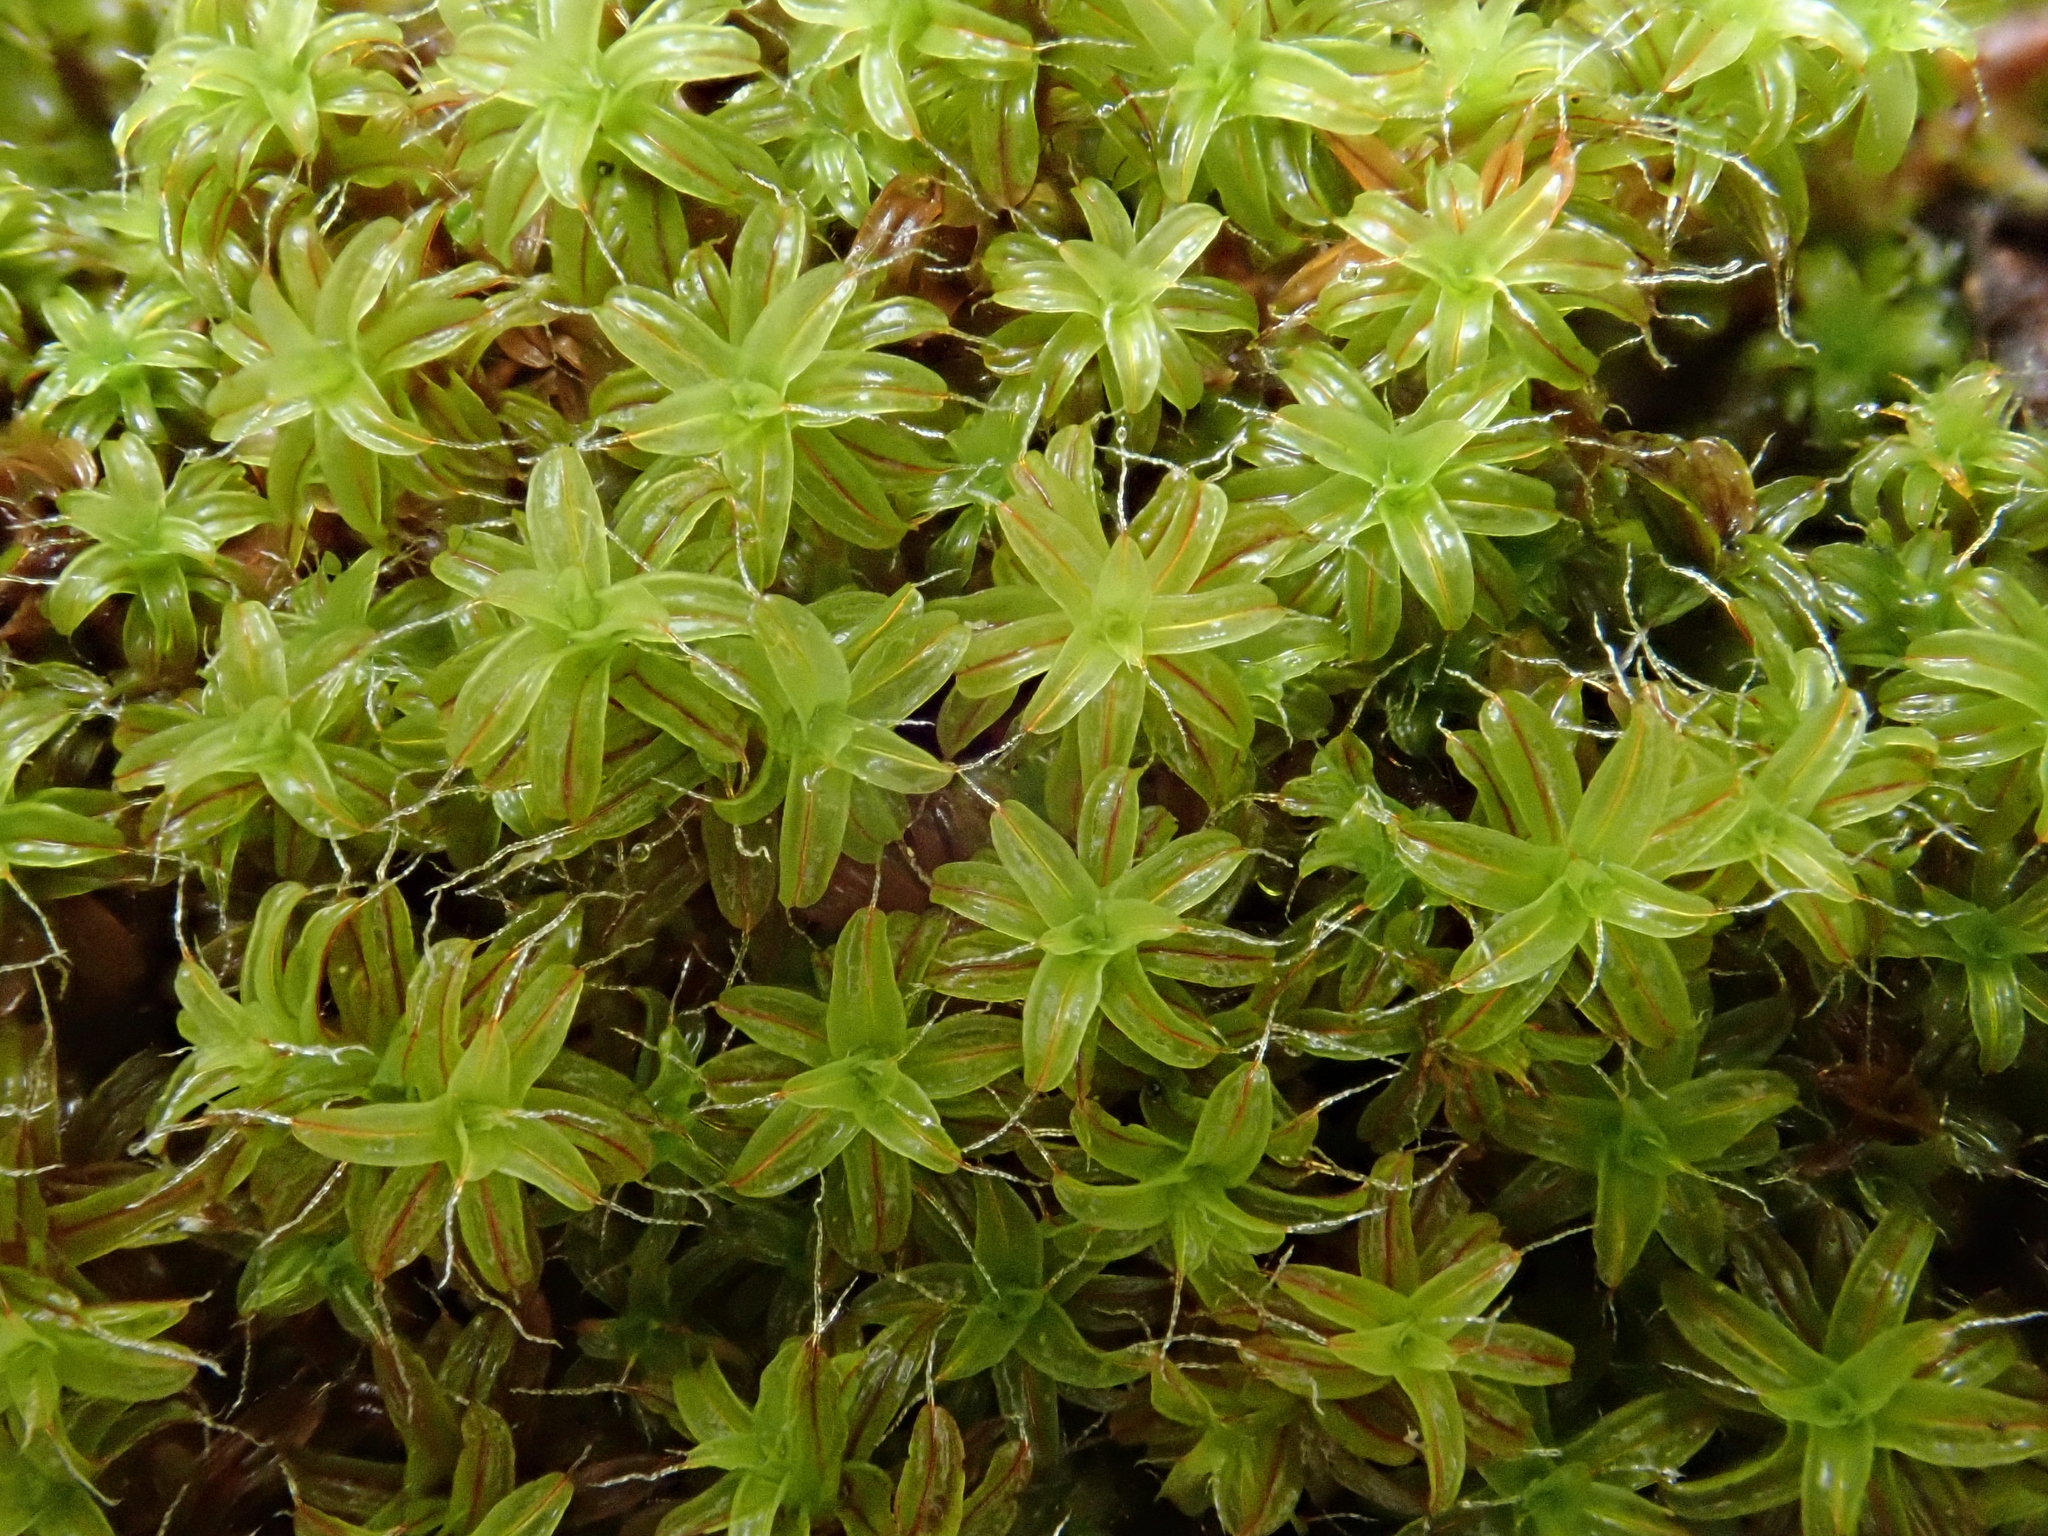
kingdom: Plantae
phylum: Bryophyta
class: Bryopsida
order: Pottiales
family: Pottiaceae
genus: Syntrichia
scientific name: Syntrichia ruralis
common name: Sidewalk screw moss
